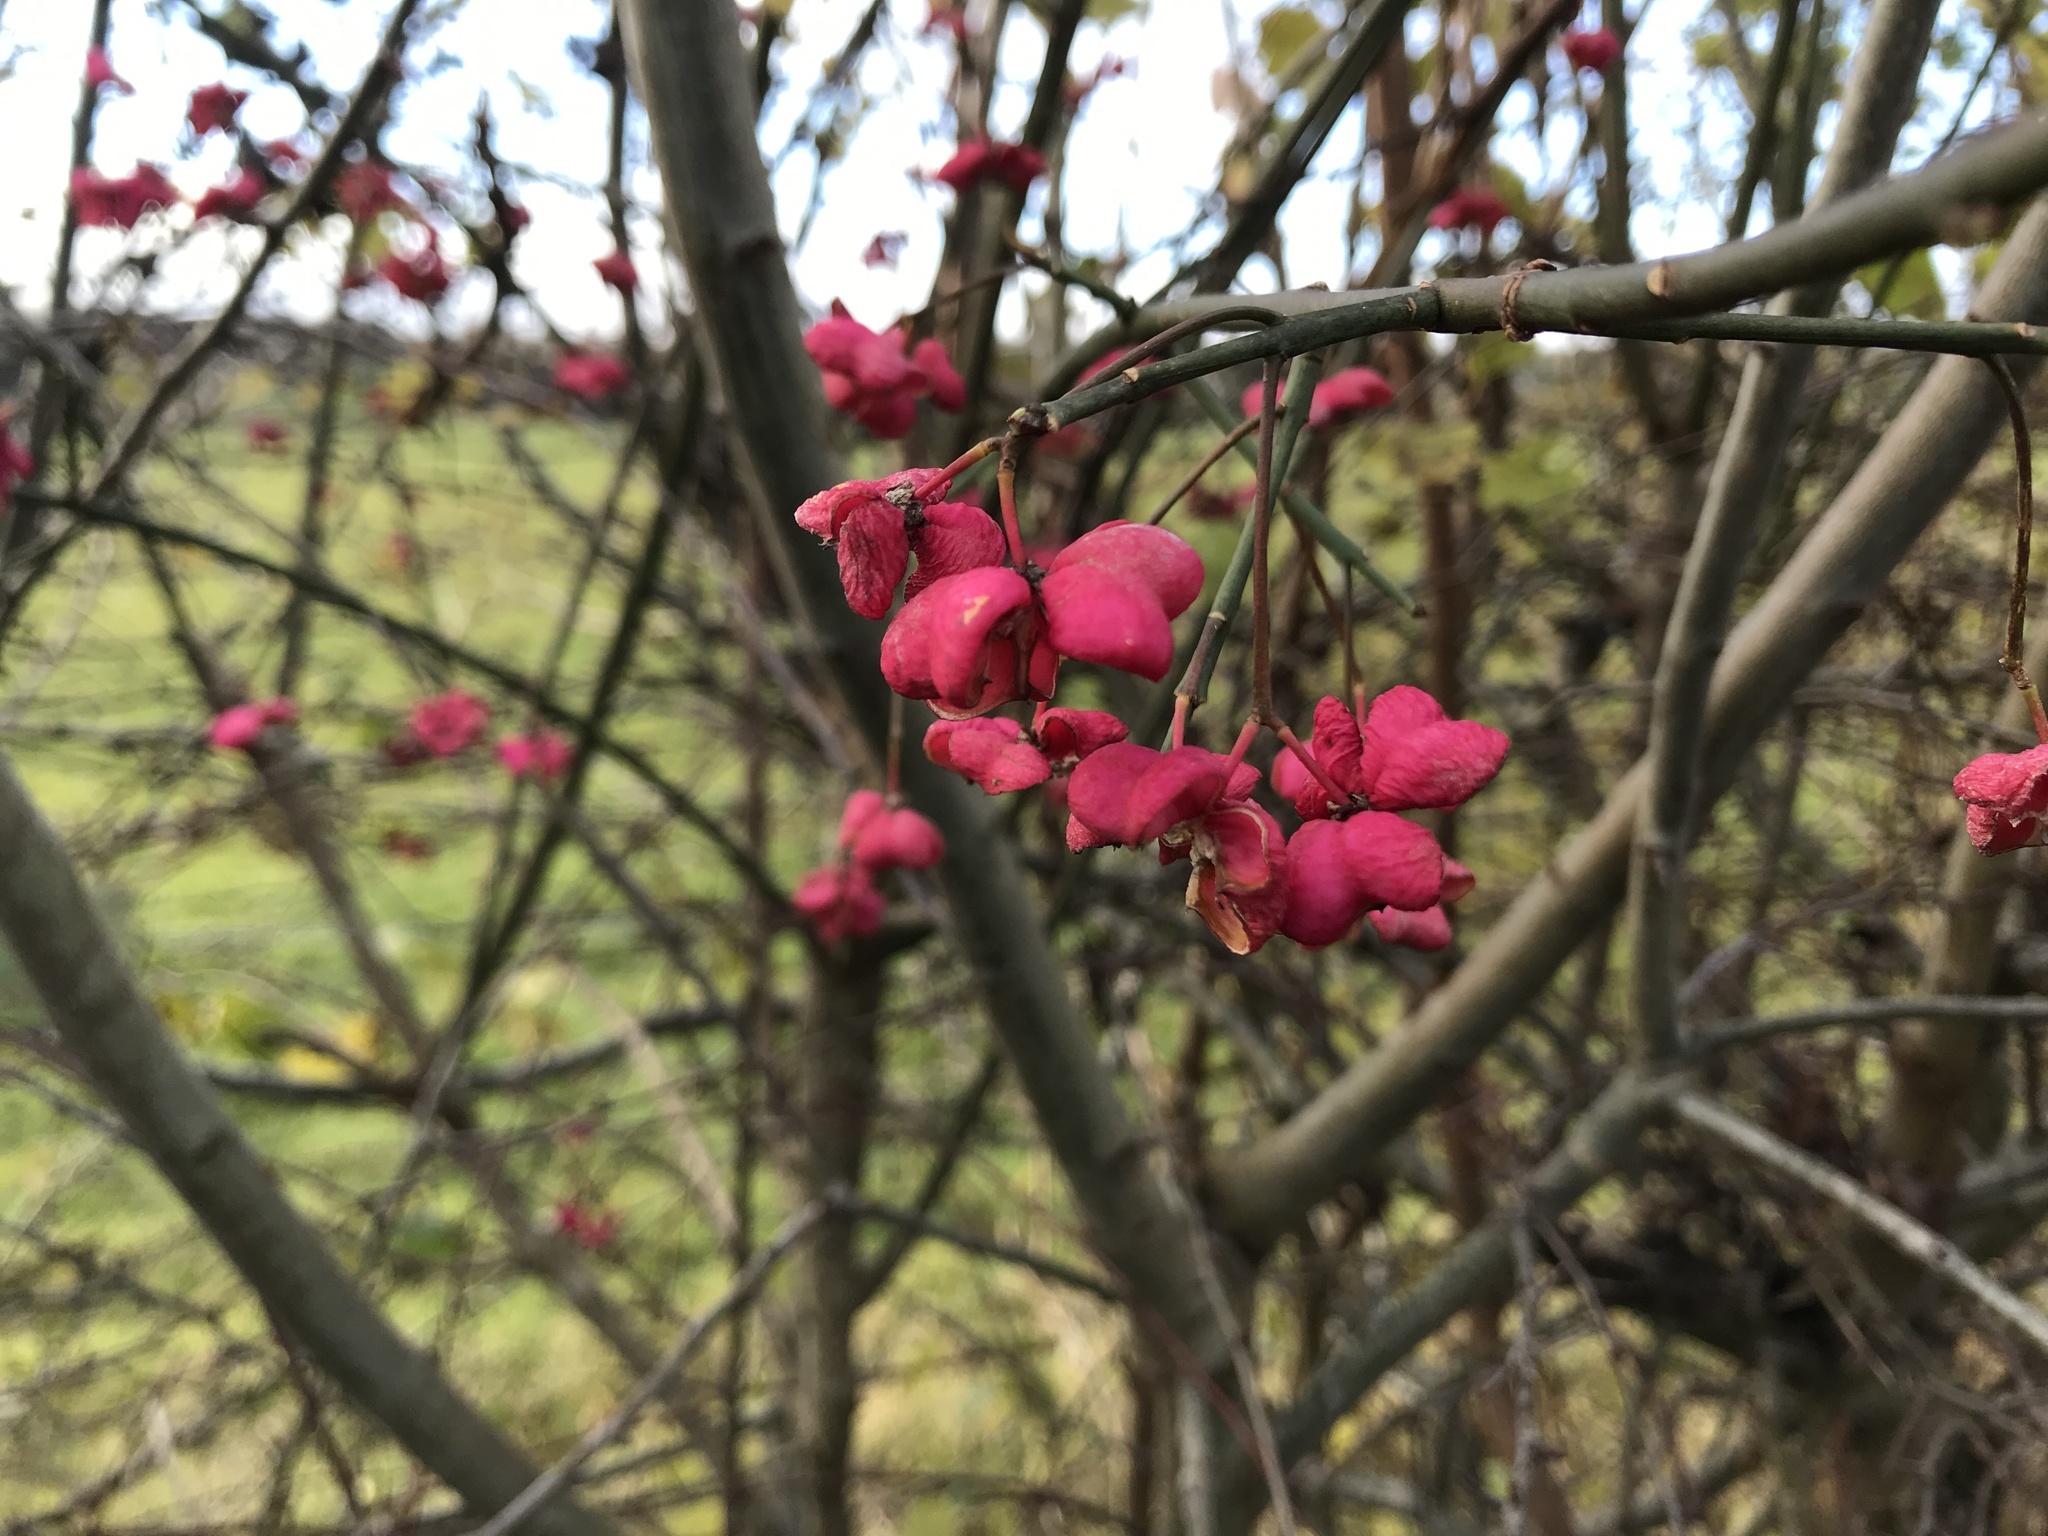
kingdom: Plantae
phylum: Tracheophyta
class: Magnoliopsida
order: Celastrales
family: Celastraceae
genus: Euonymus
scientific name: Euonymus europaeus
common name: Spindle
